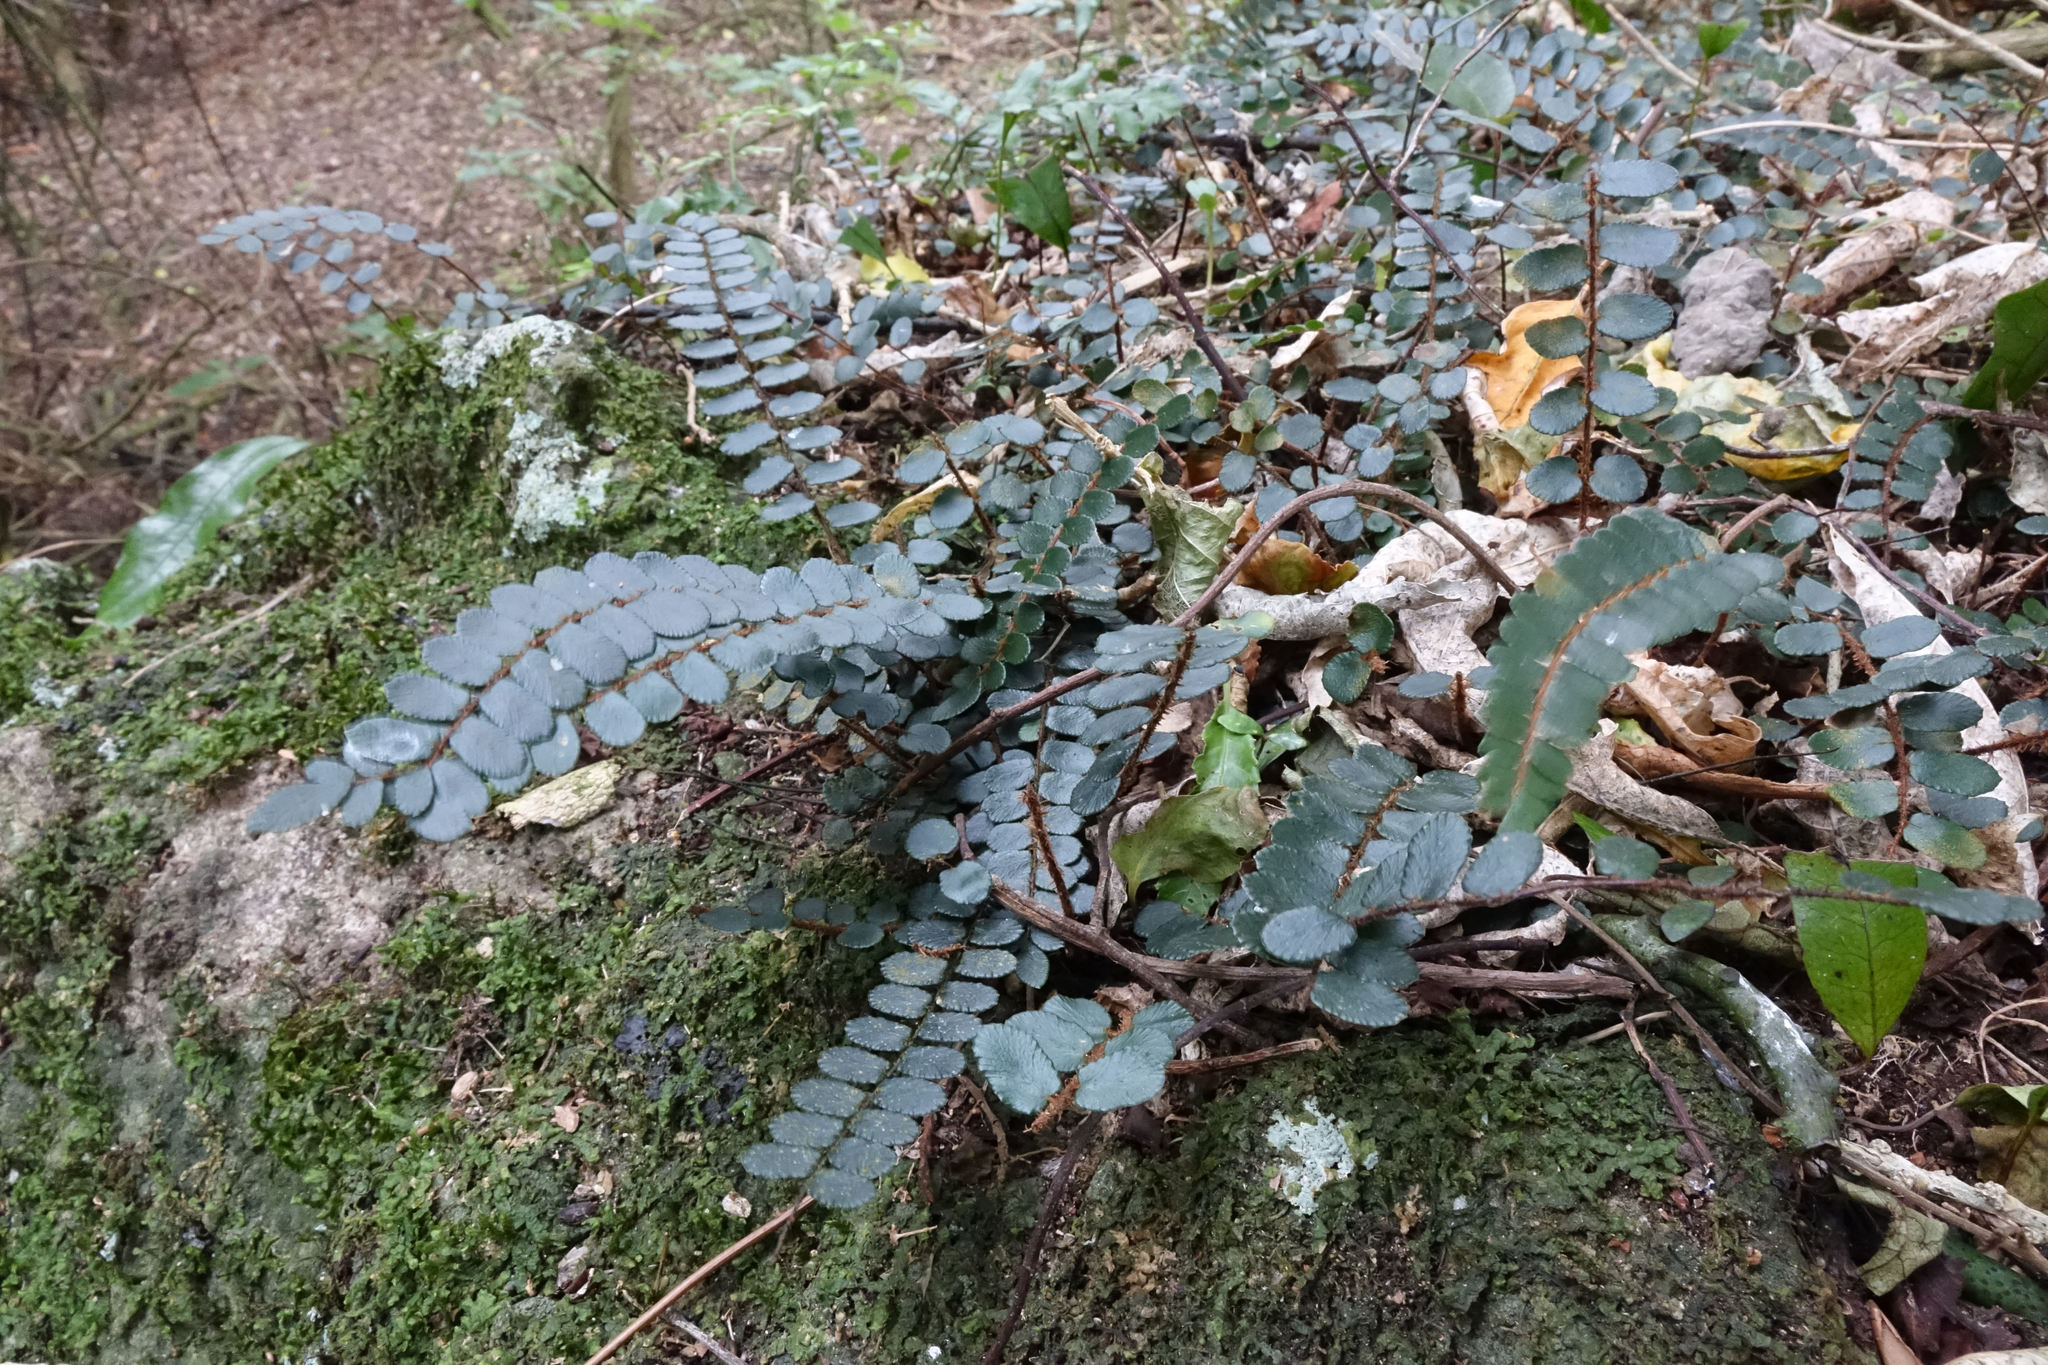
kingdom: Plantae
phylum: Tracheophyta
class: Polypodiopsida
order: Polypodiales
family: Pteridaceae
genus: Pellaea
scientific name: Pellaea rotundifolia
